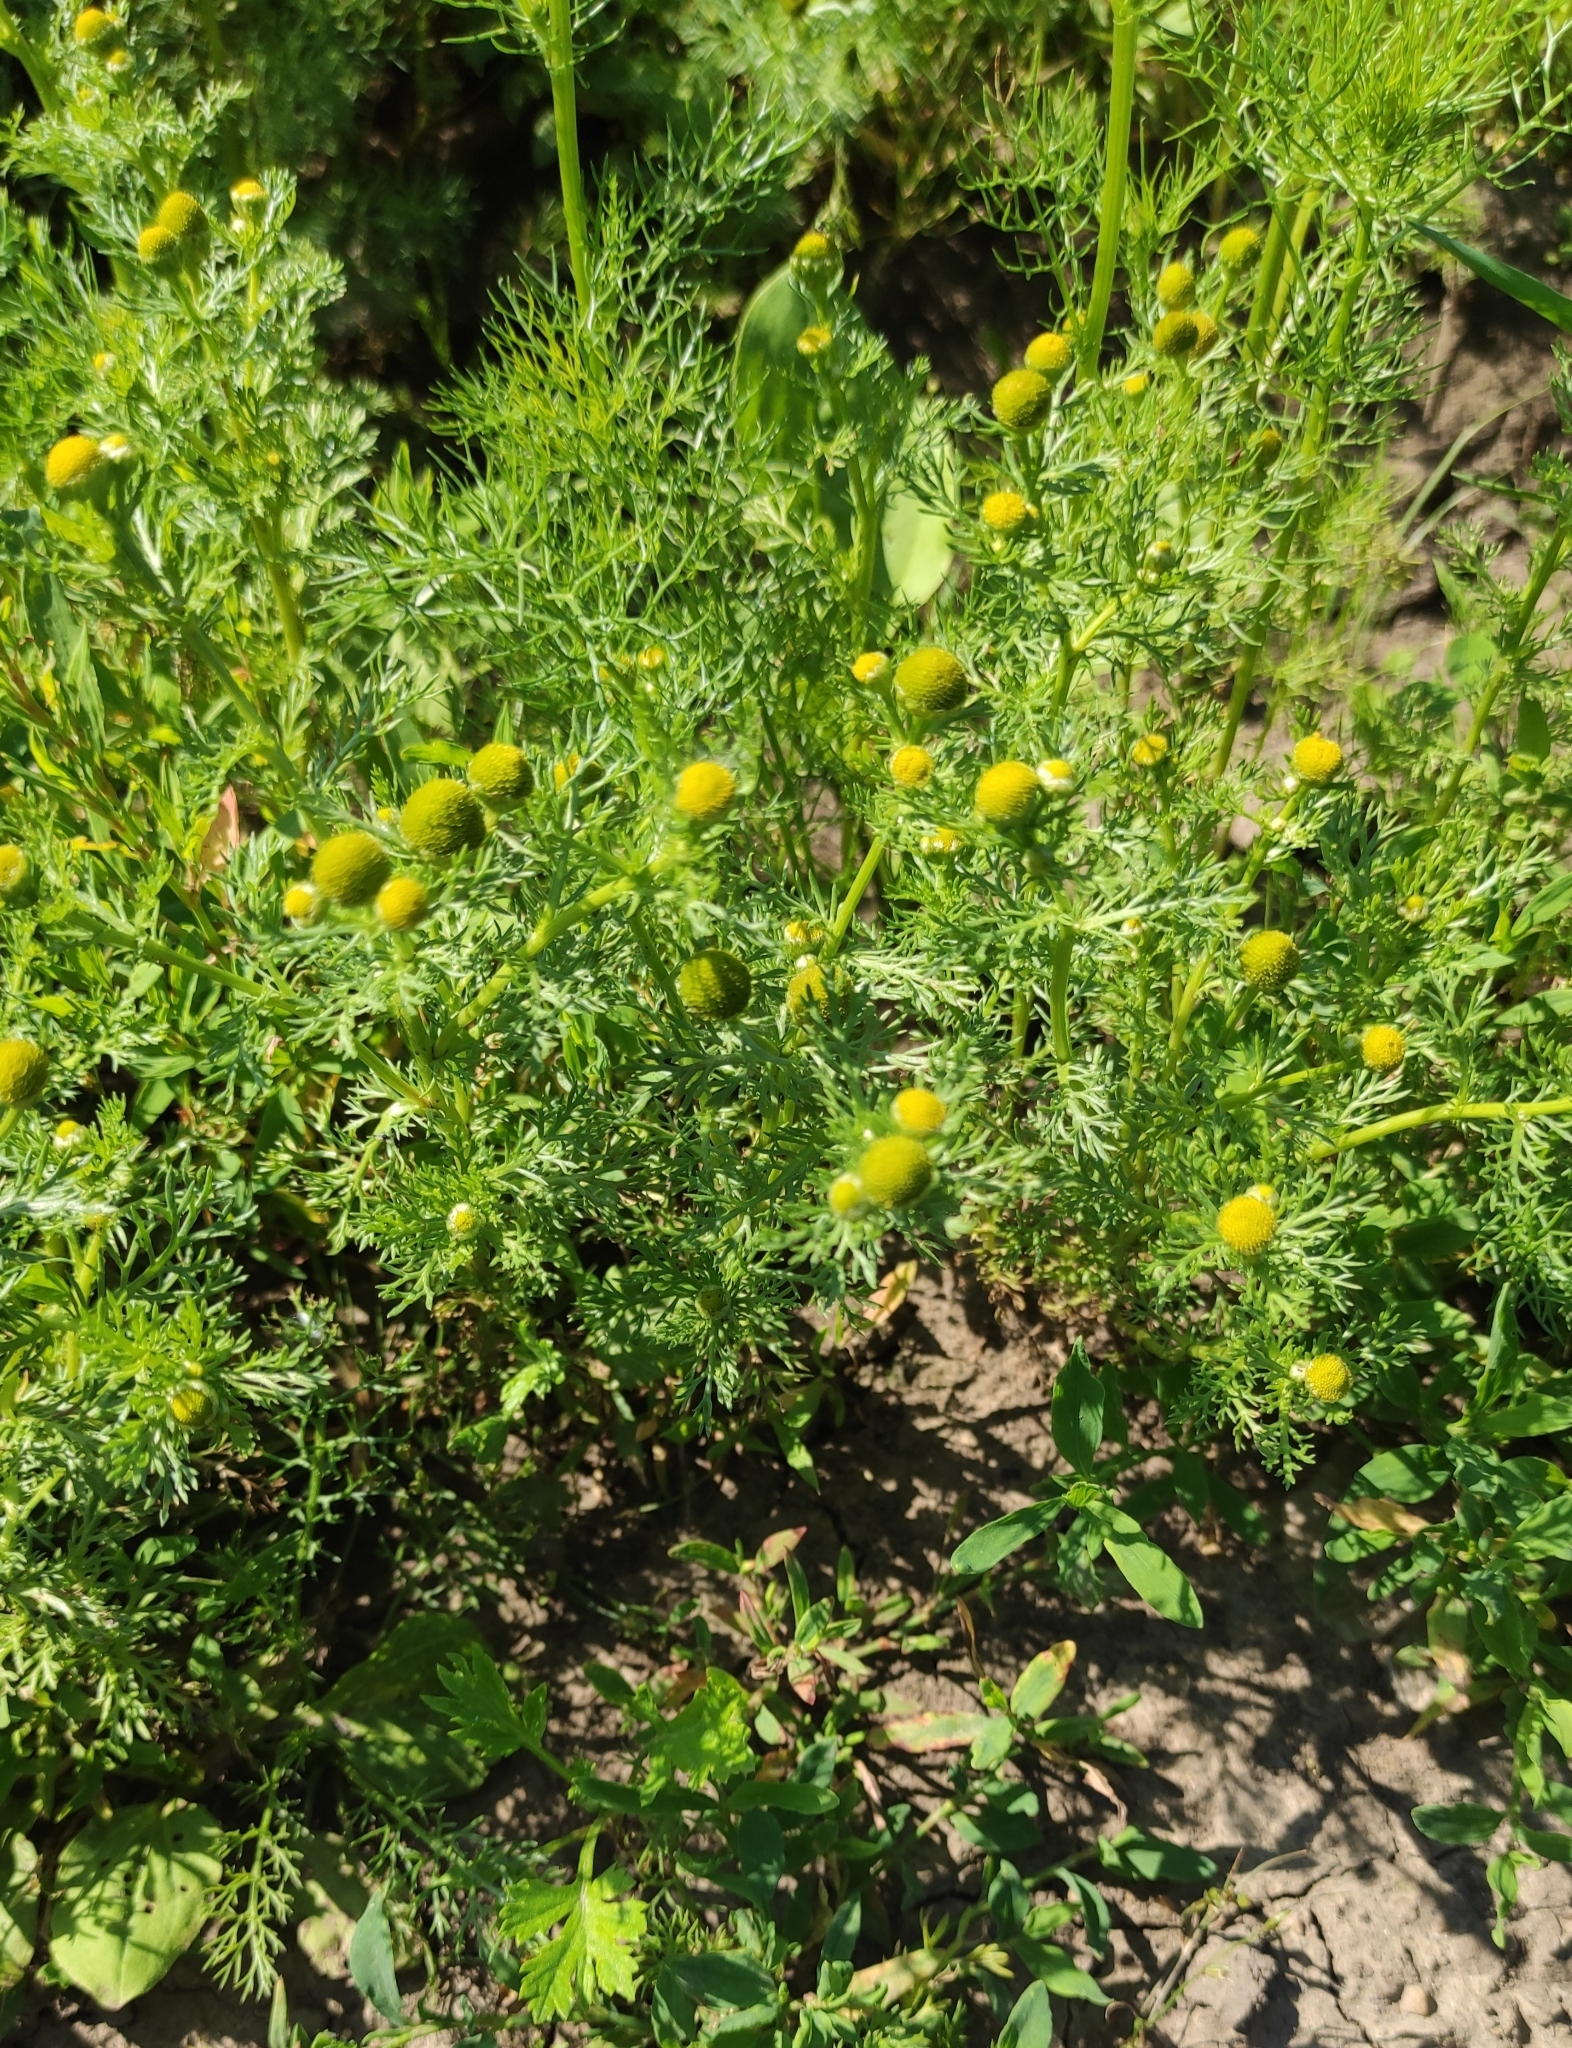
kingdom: Plantae
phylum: Tracheophyta
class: Magnoliopsida
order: Asterales
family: Asteraceae
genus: Matricaria
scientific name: Matricaria discoidea
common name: Disc mayweed
